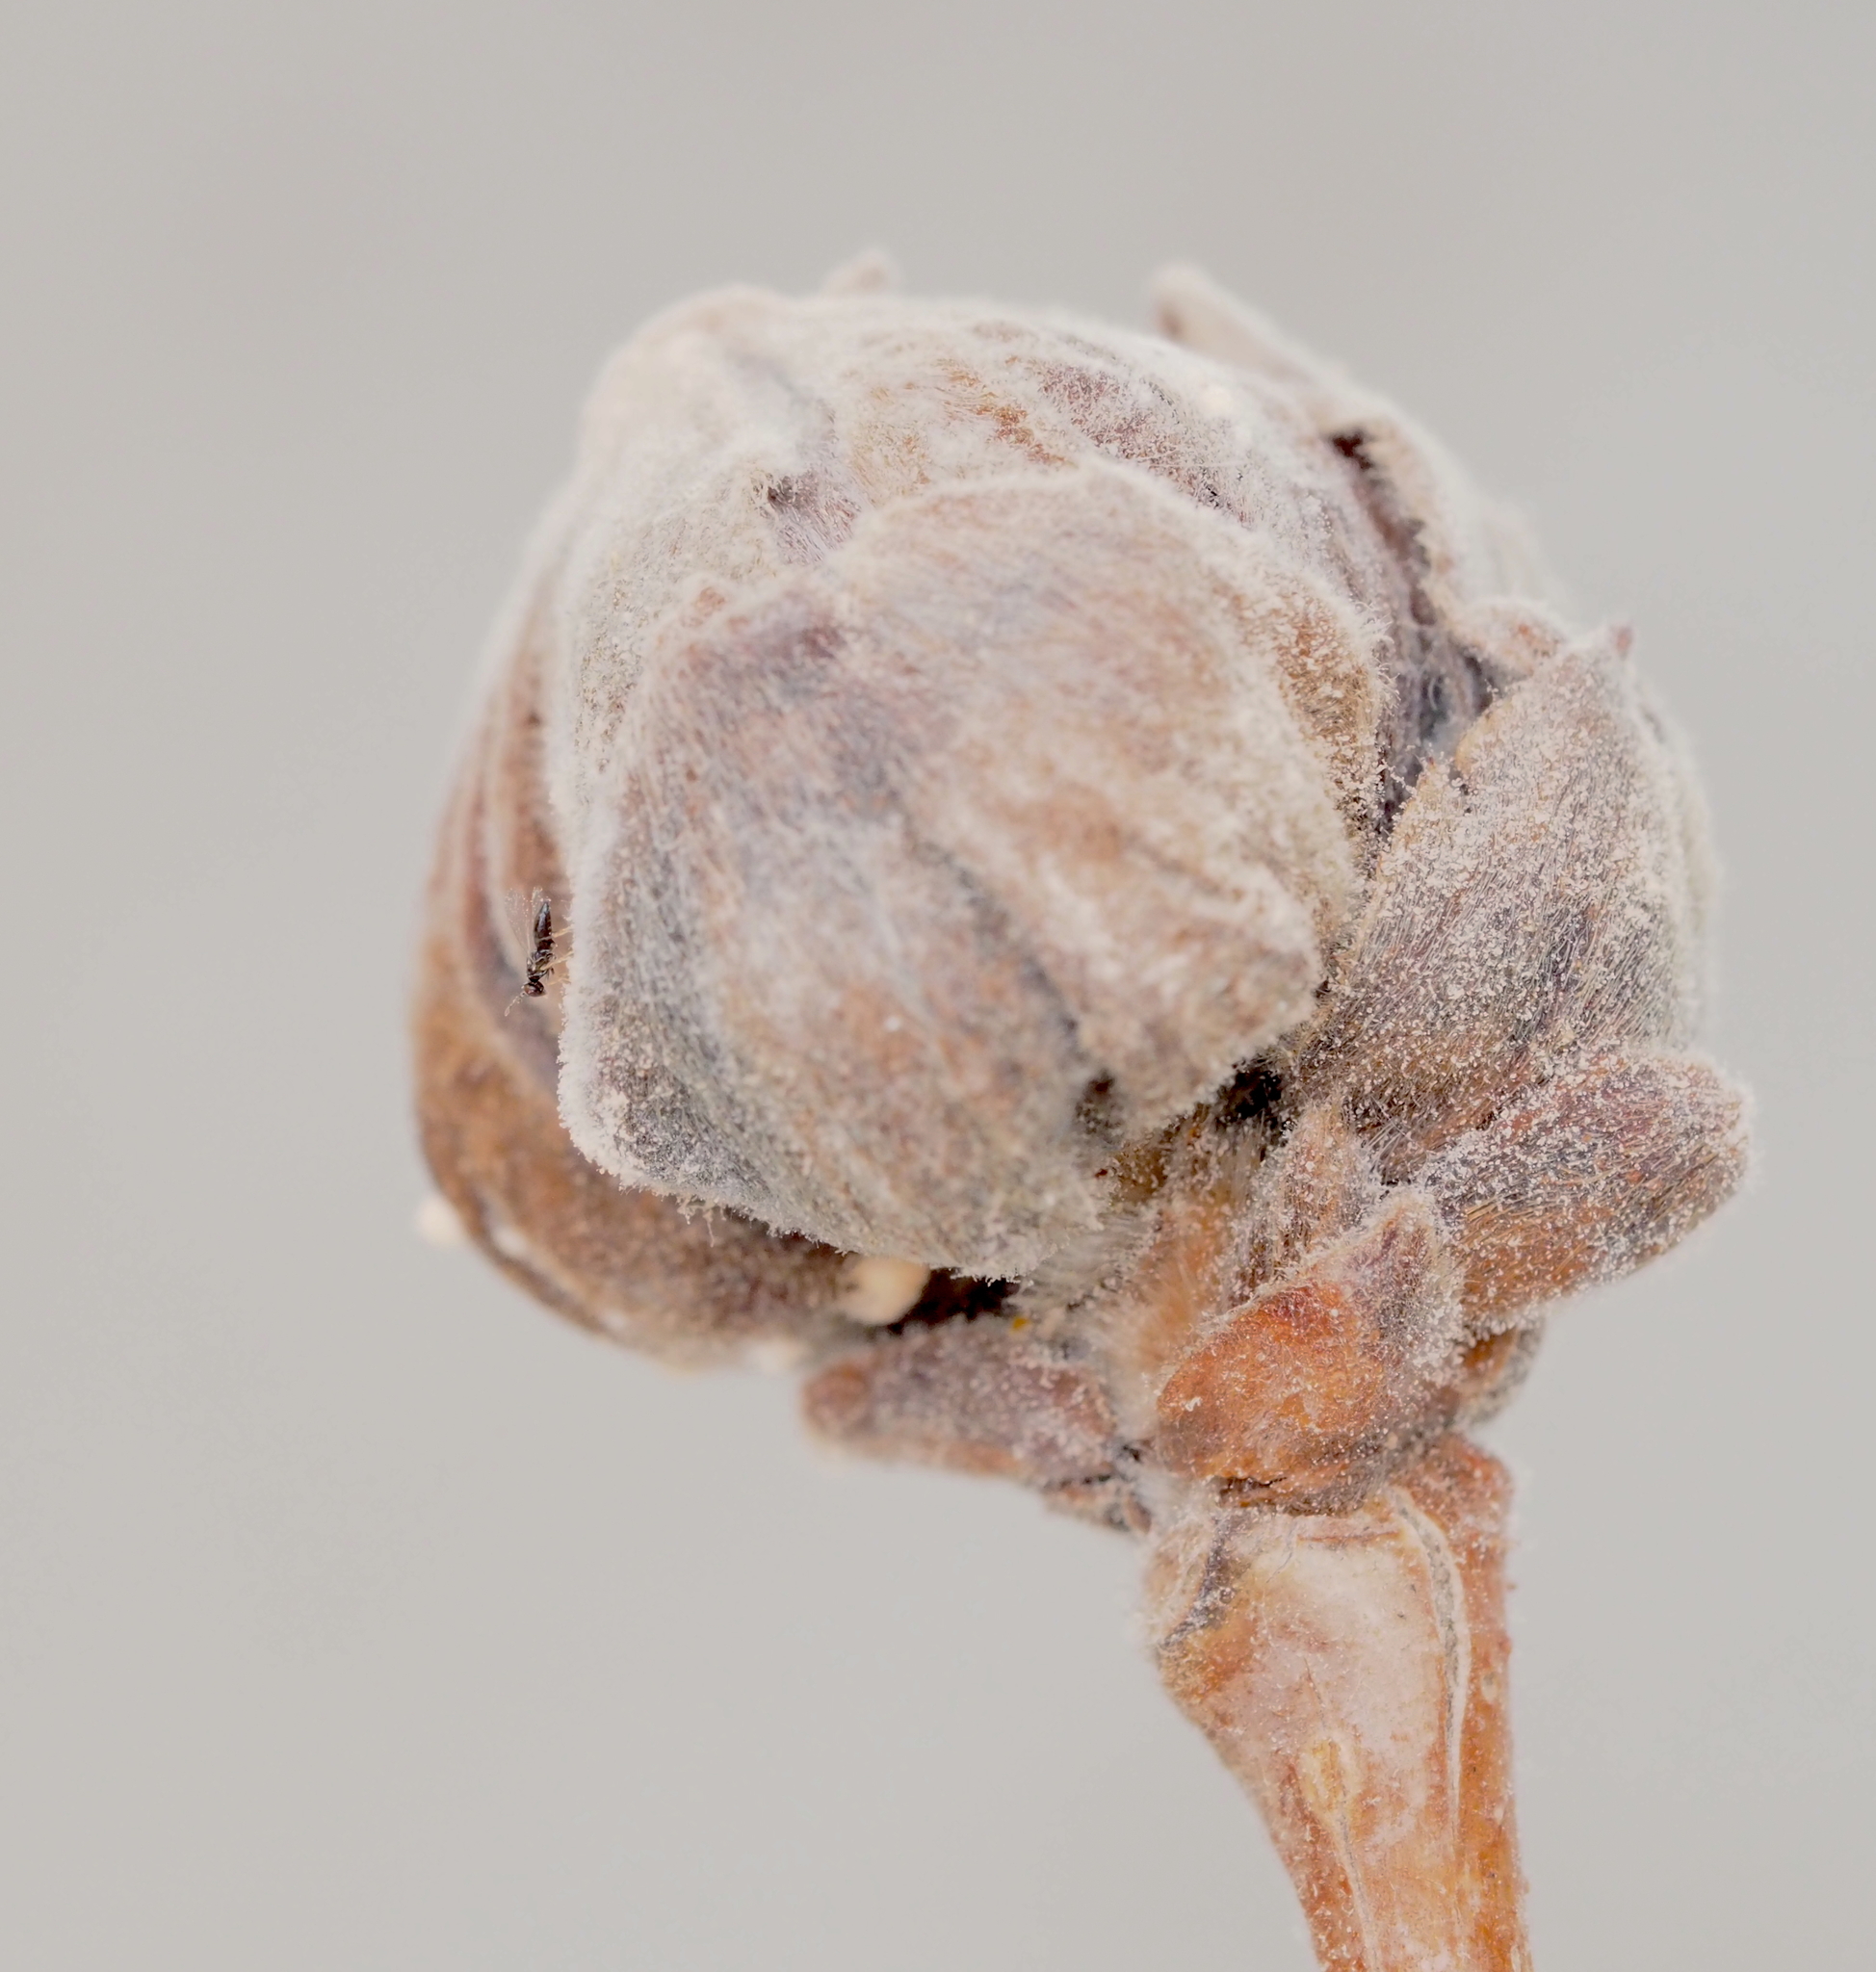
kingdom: Animalia
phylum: Arthropoda
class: Insecta
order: Hymenoptera
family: Eulophidae
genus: Aprostocetus
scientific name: Aprostocetus eriophyes
